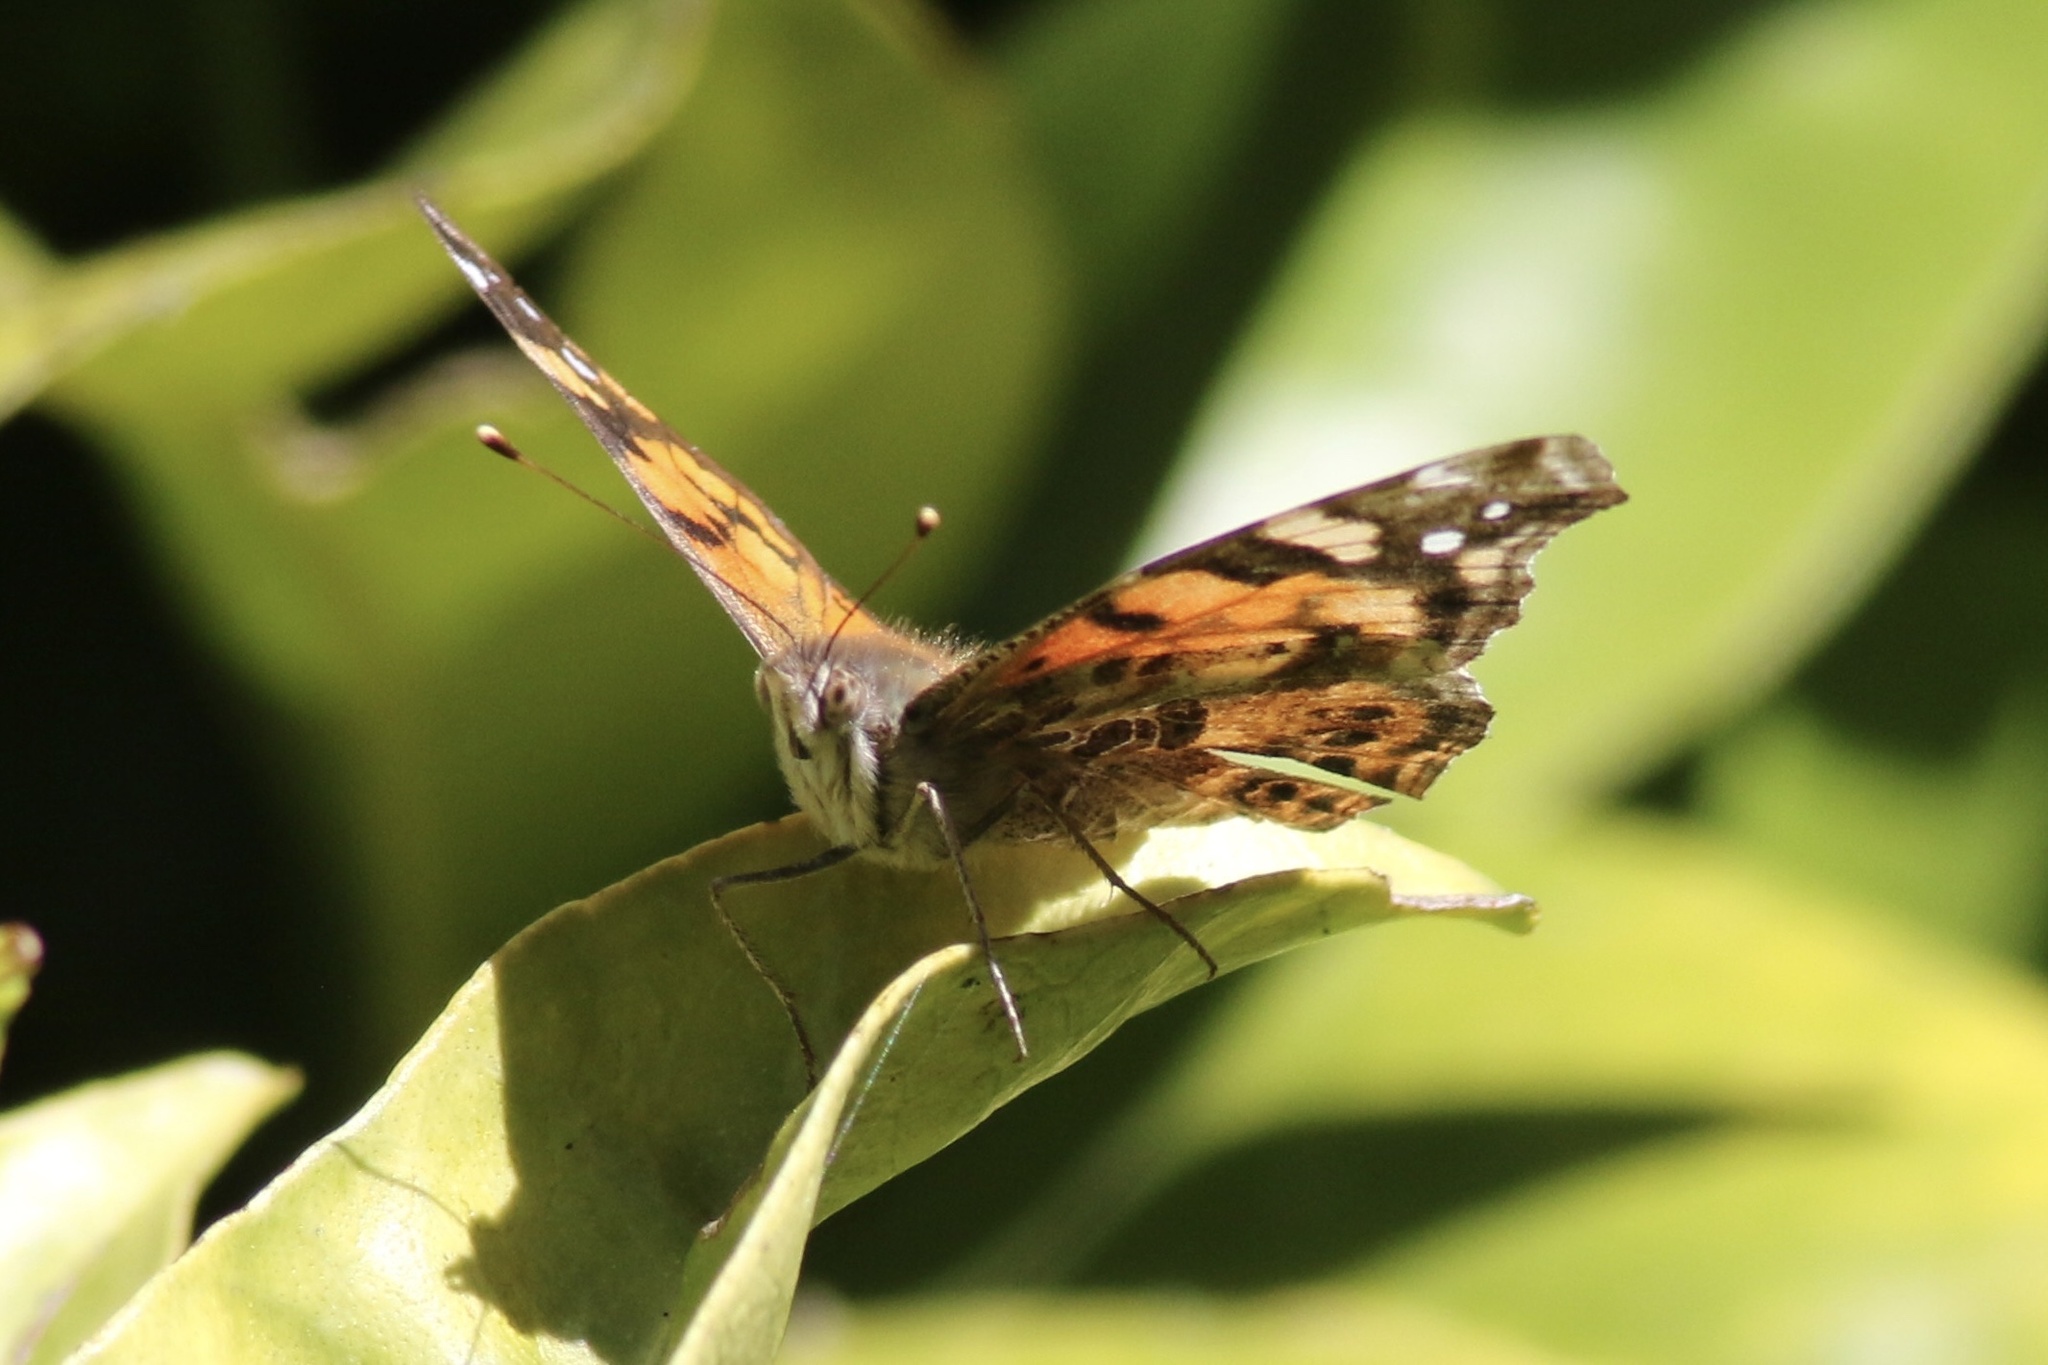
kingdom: Animalia
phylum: Arthropoda
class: Insecta
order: Lepidoptera
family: Nymphalidae
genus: Vanessa
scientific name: Vanessa annabella
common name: West coast lady
